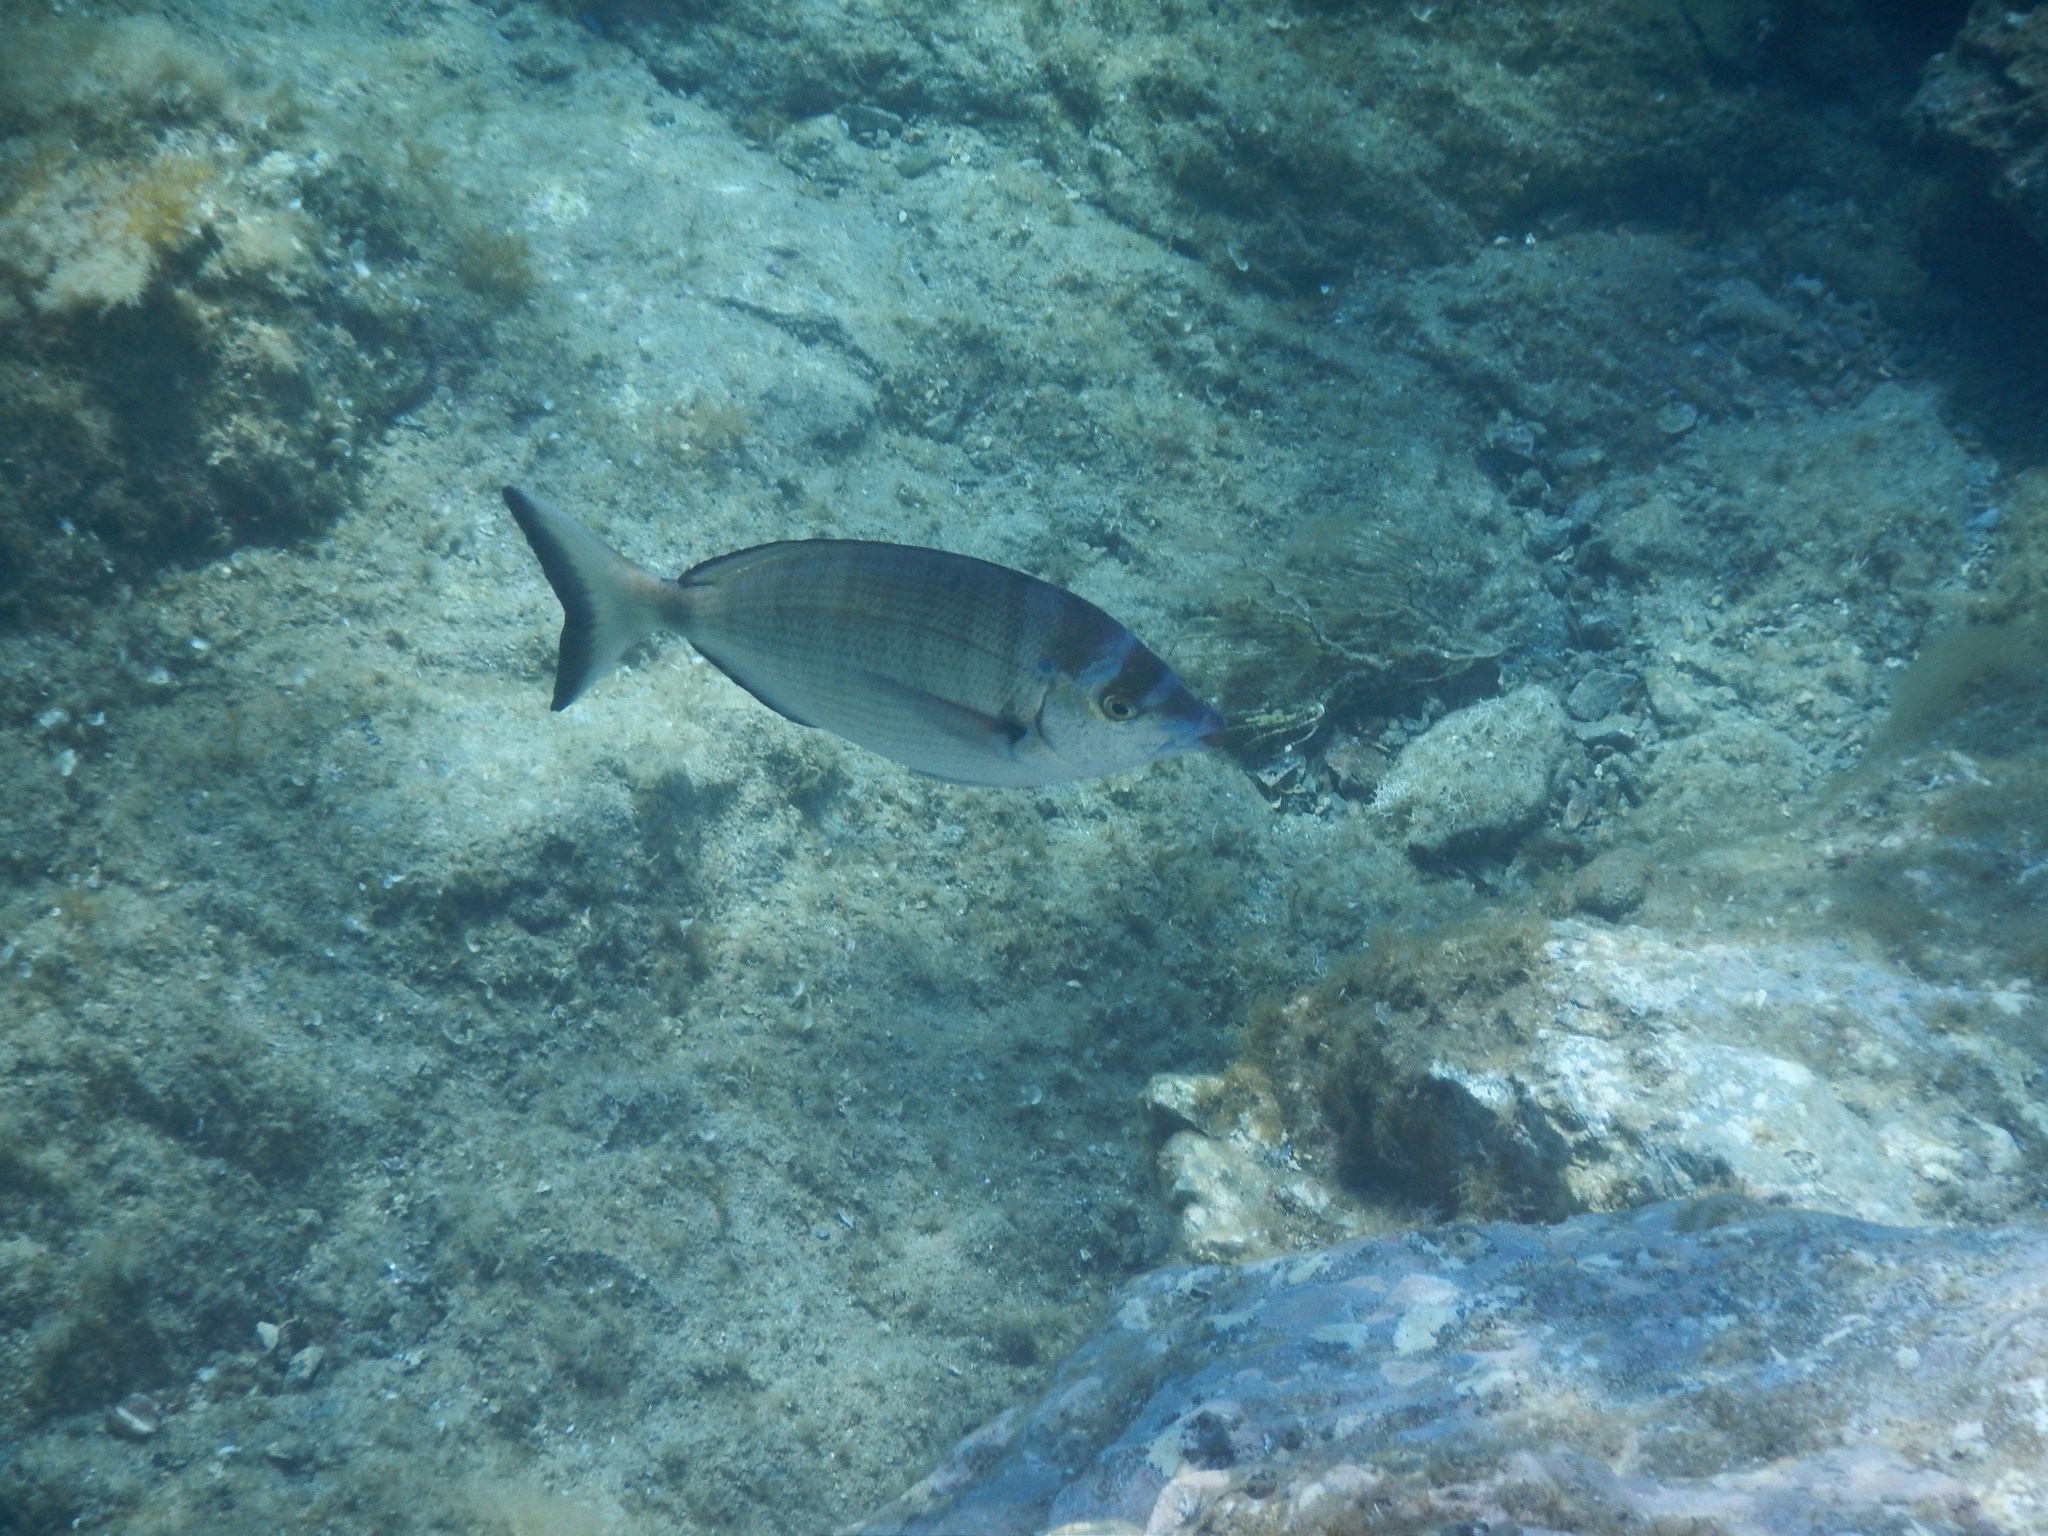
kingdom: Animalia
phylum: Chordata
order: Perciformes
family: Sparidae
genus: Diplodus
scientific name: Diplodus puntazzo
